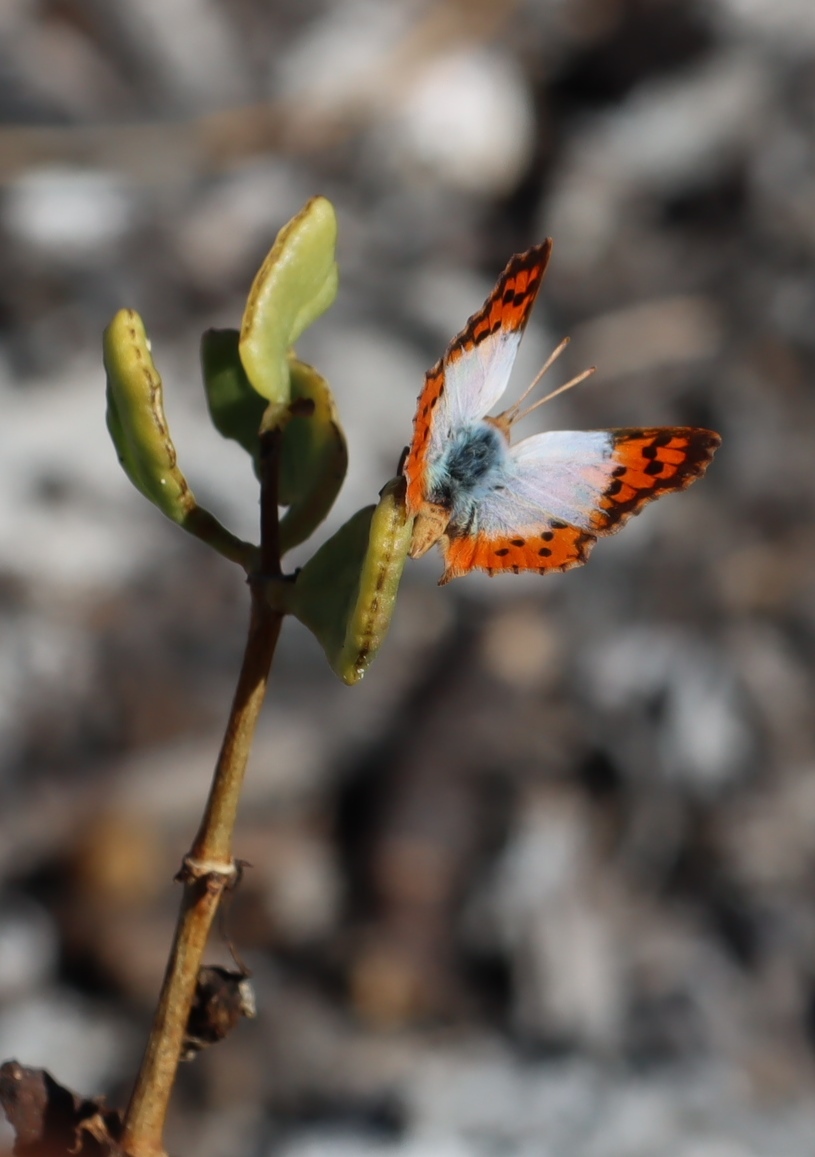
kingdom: Animalia
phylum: Arthropoda
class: Insecta
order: Lepidoptera
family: Lycaenidae
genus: Chrysoritis
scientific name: Chrysoritis thysbe
